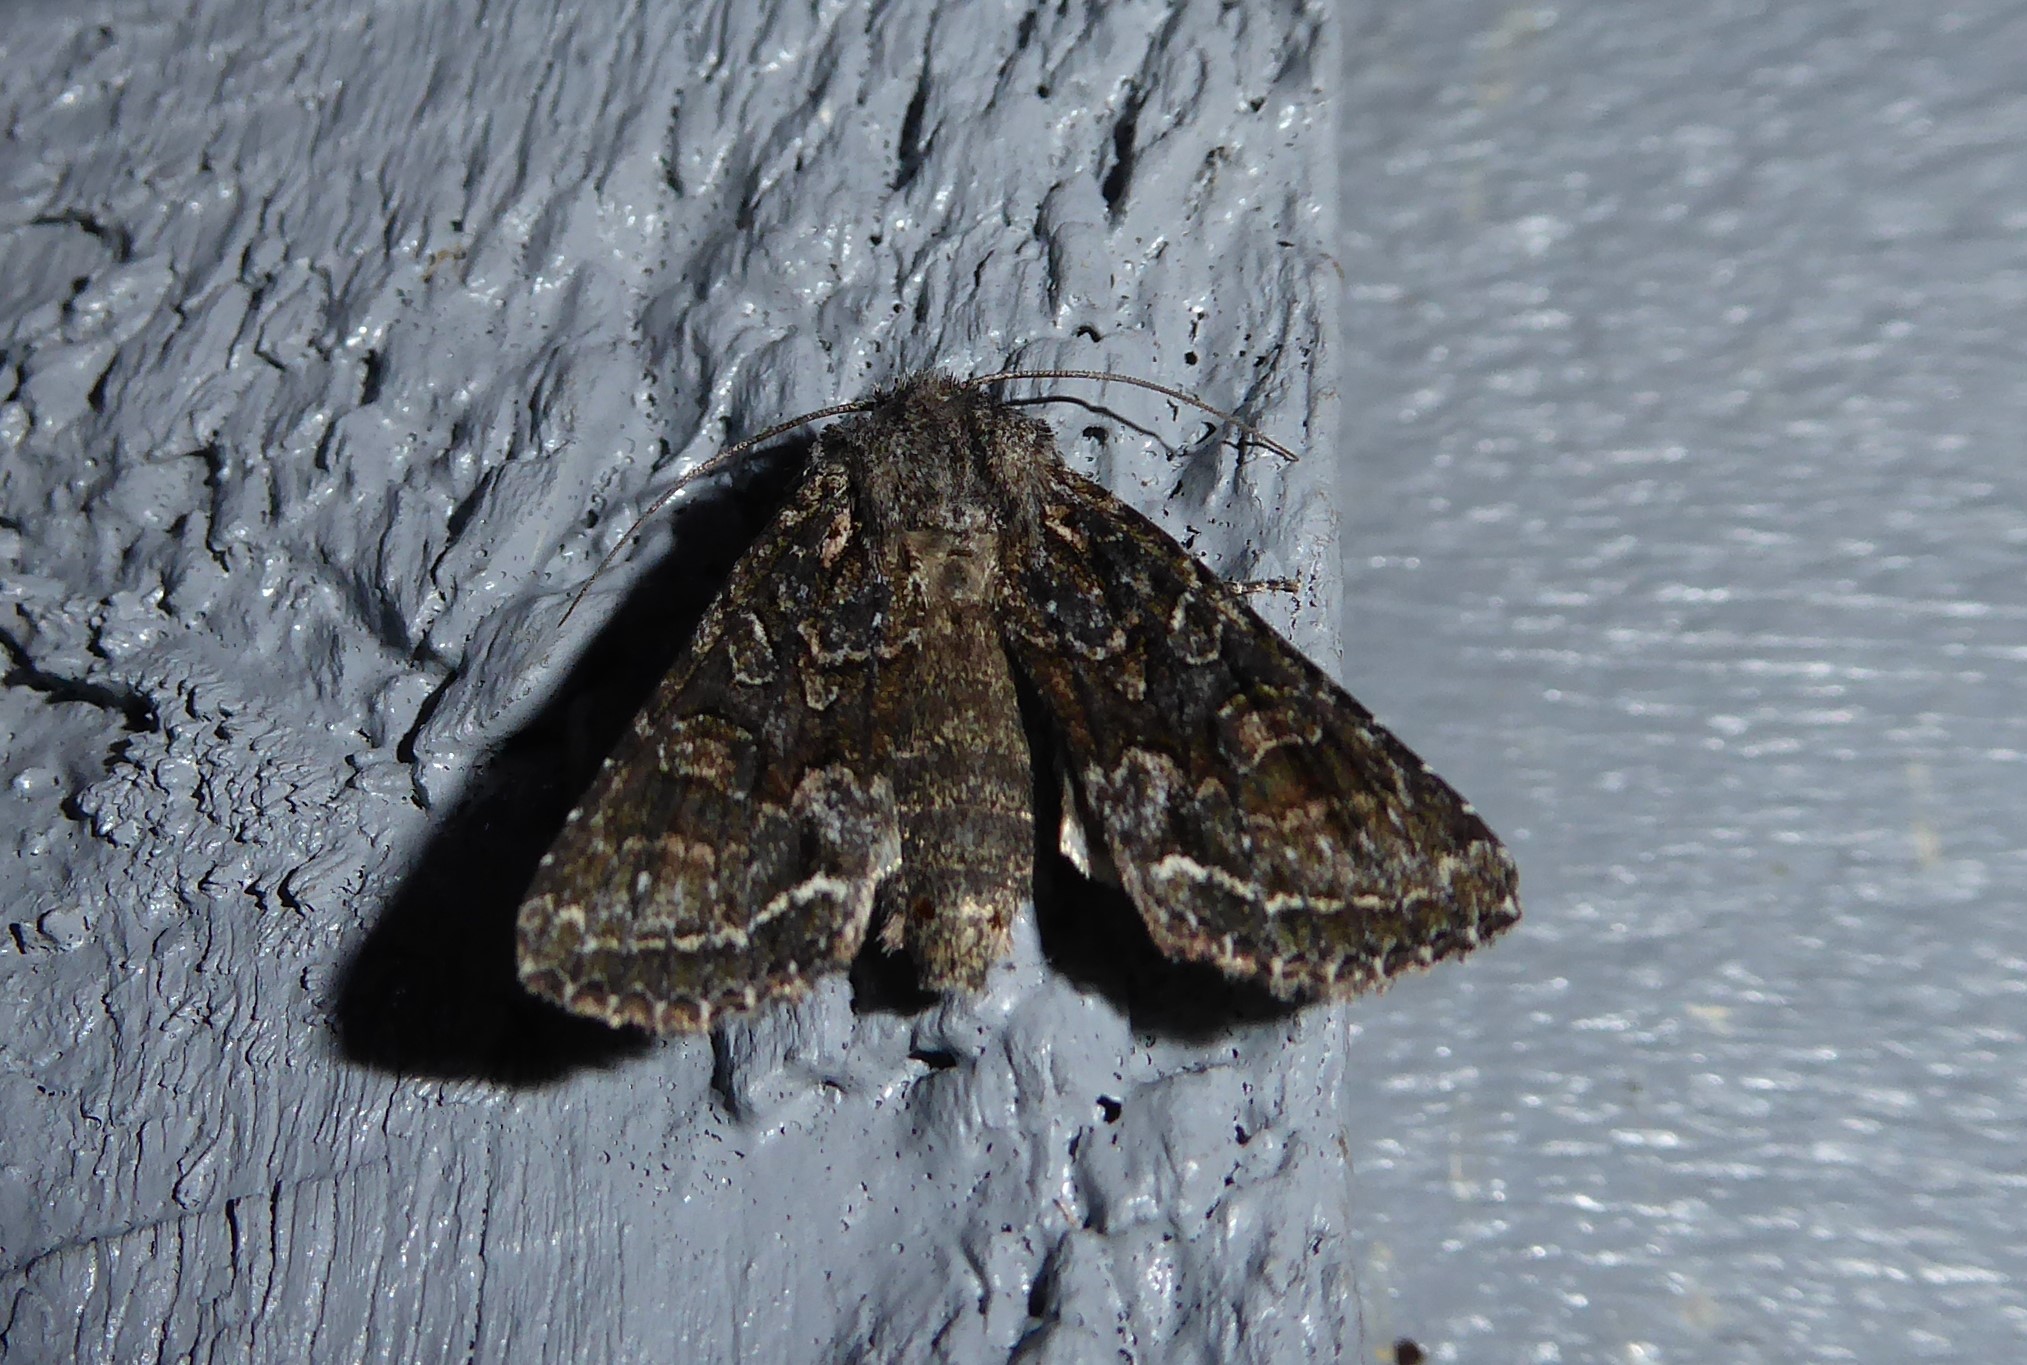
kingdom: Animalia
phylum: Arthropoda
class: Insecta
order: Lepidoptera
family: Noctuidae
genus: Ichneutica
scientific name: Ichneutica mutans
